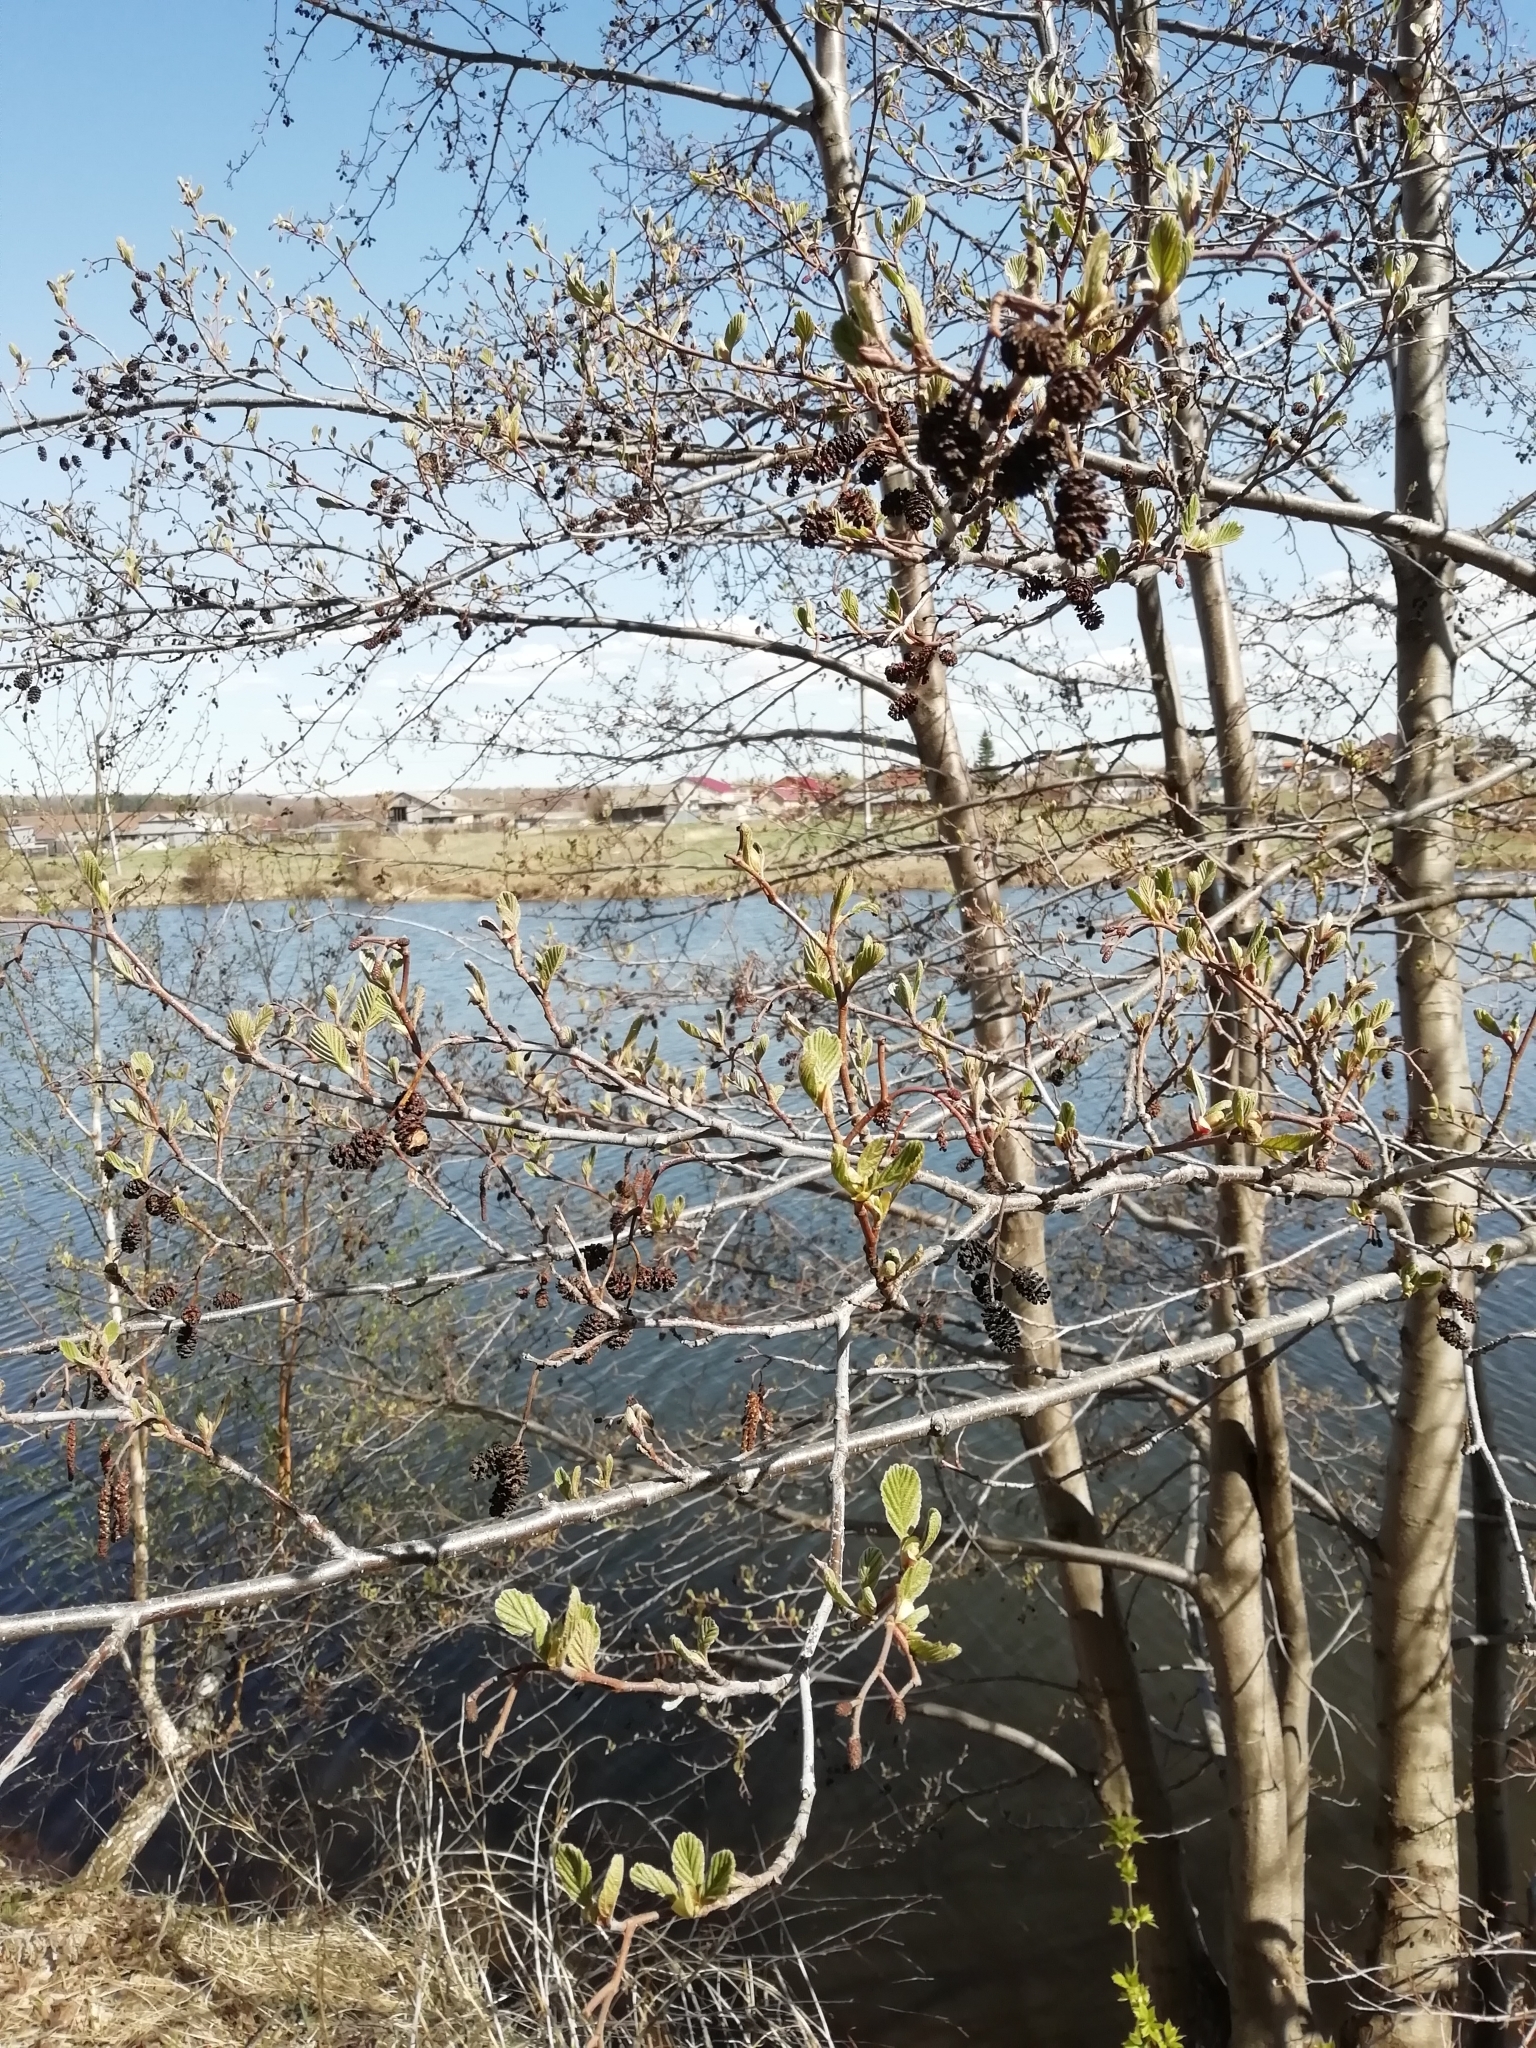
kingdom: Plantae
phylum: Tracheophyta
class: Magnoliopsida
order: Fagales
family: Betulaceae
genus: Alnus
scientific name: Alnus glutinosa
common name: Black alder
